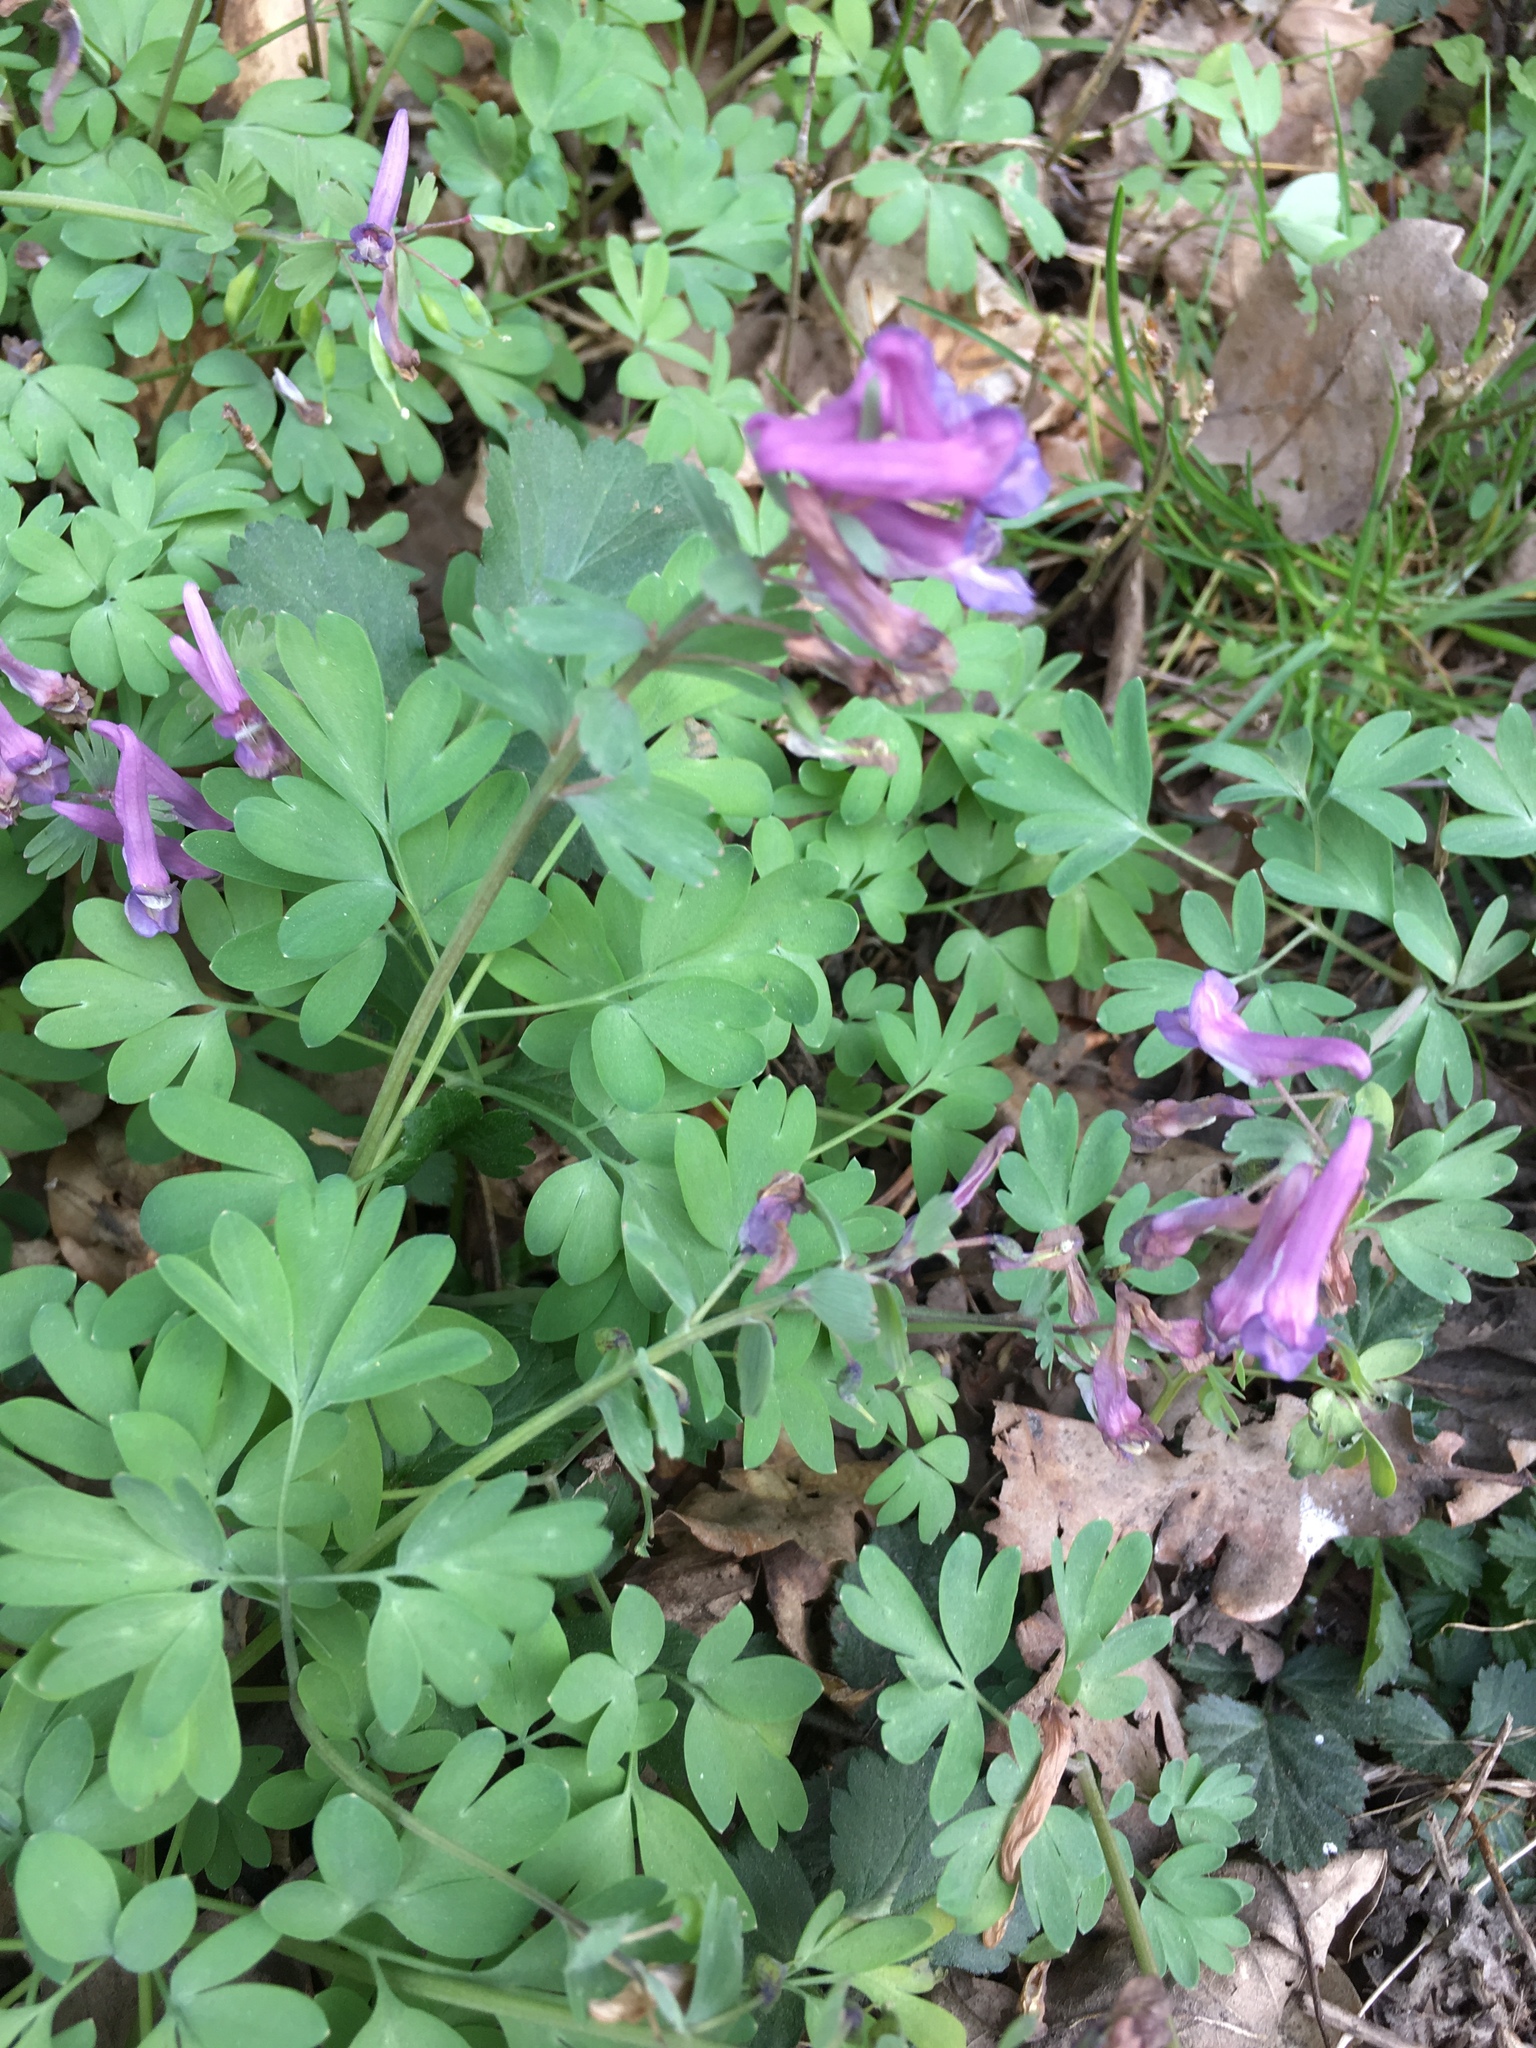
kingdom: Plantae
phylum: Tracheophyta
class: Magnoliopsida
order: Ranunculales
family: Papaveraceae
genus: Corydalis
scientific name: Corydalis solida
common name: Bird-in-a-bush
